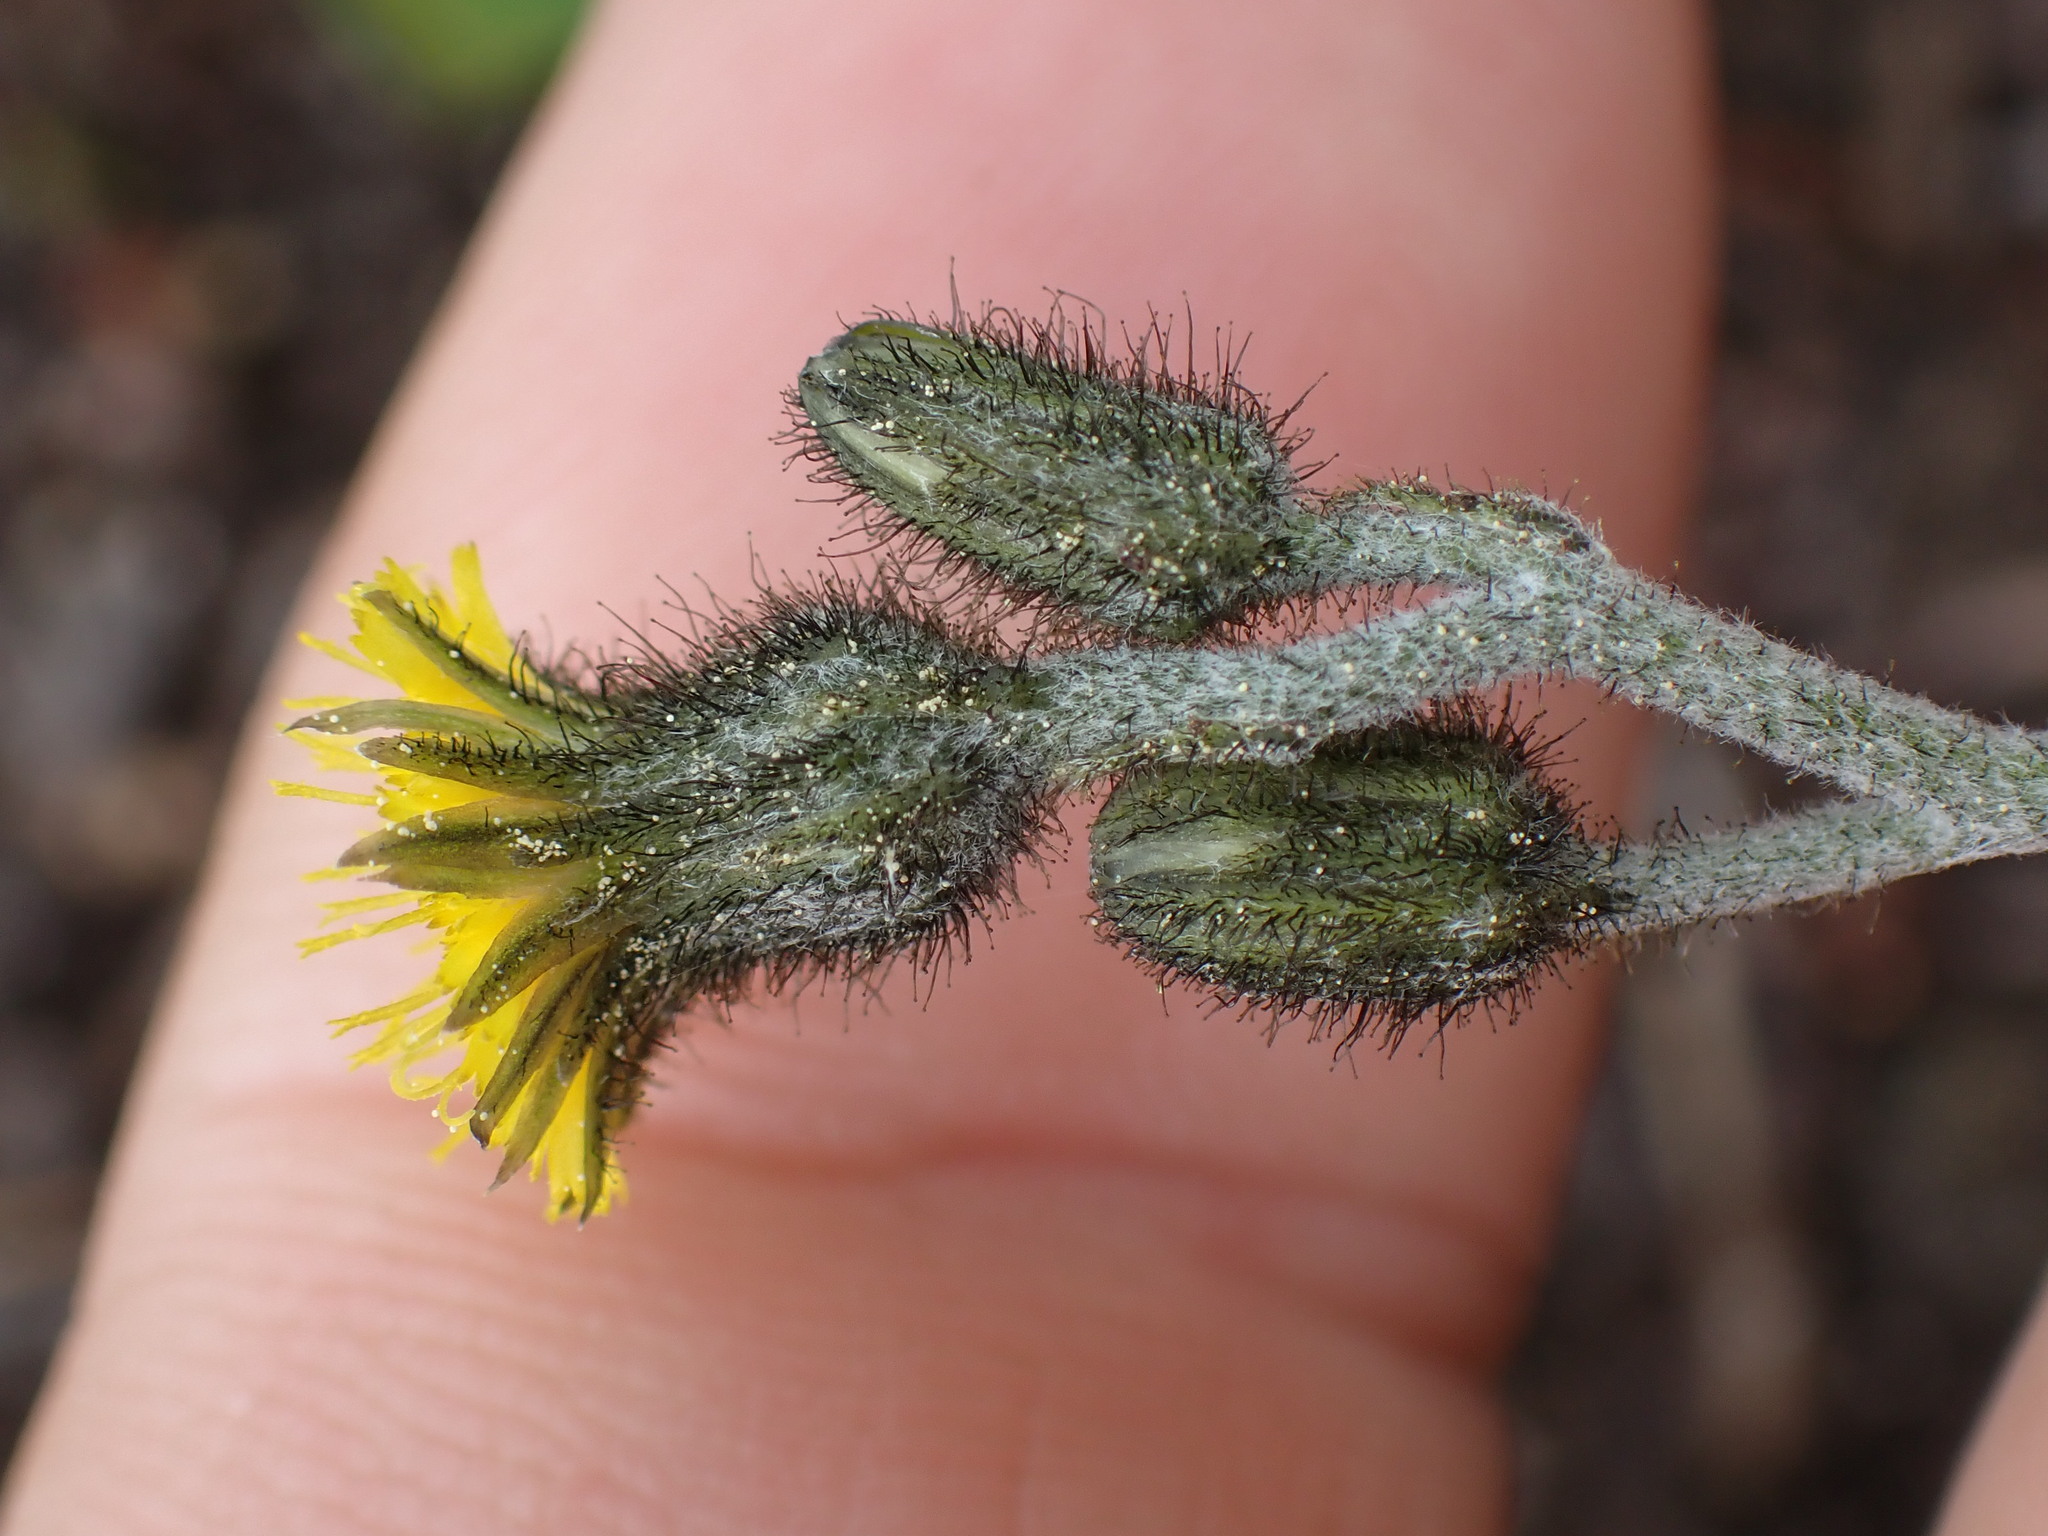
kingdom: Plantae
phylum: Tracheophyta
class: Magnoliopsida
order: Asterales
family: Asteraceae
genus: Hieracium
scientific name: Hieracium triste
